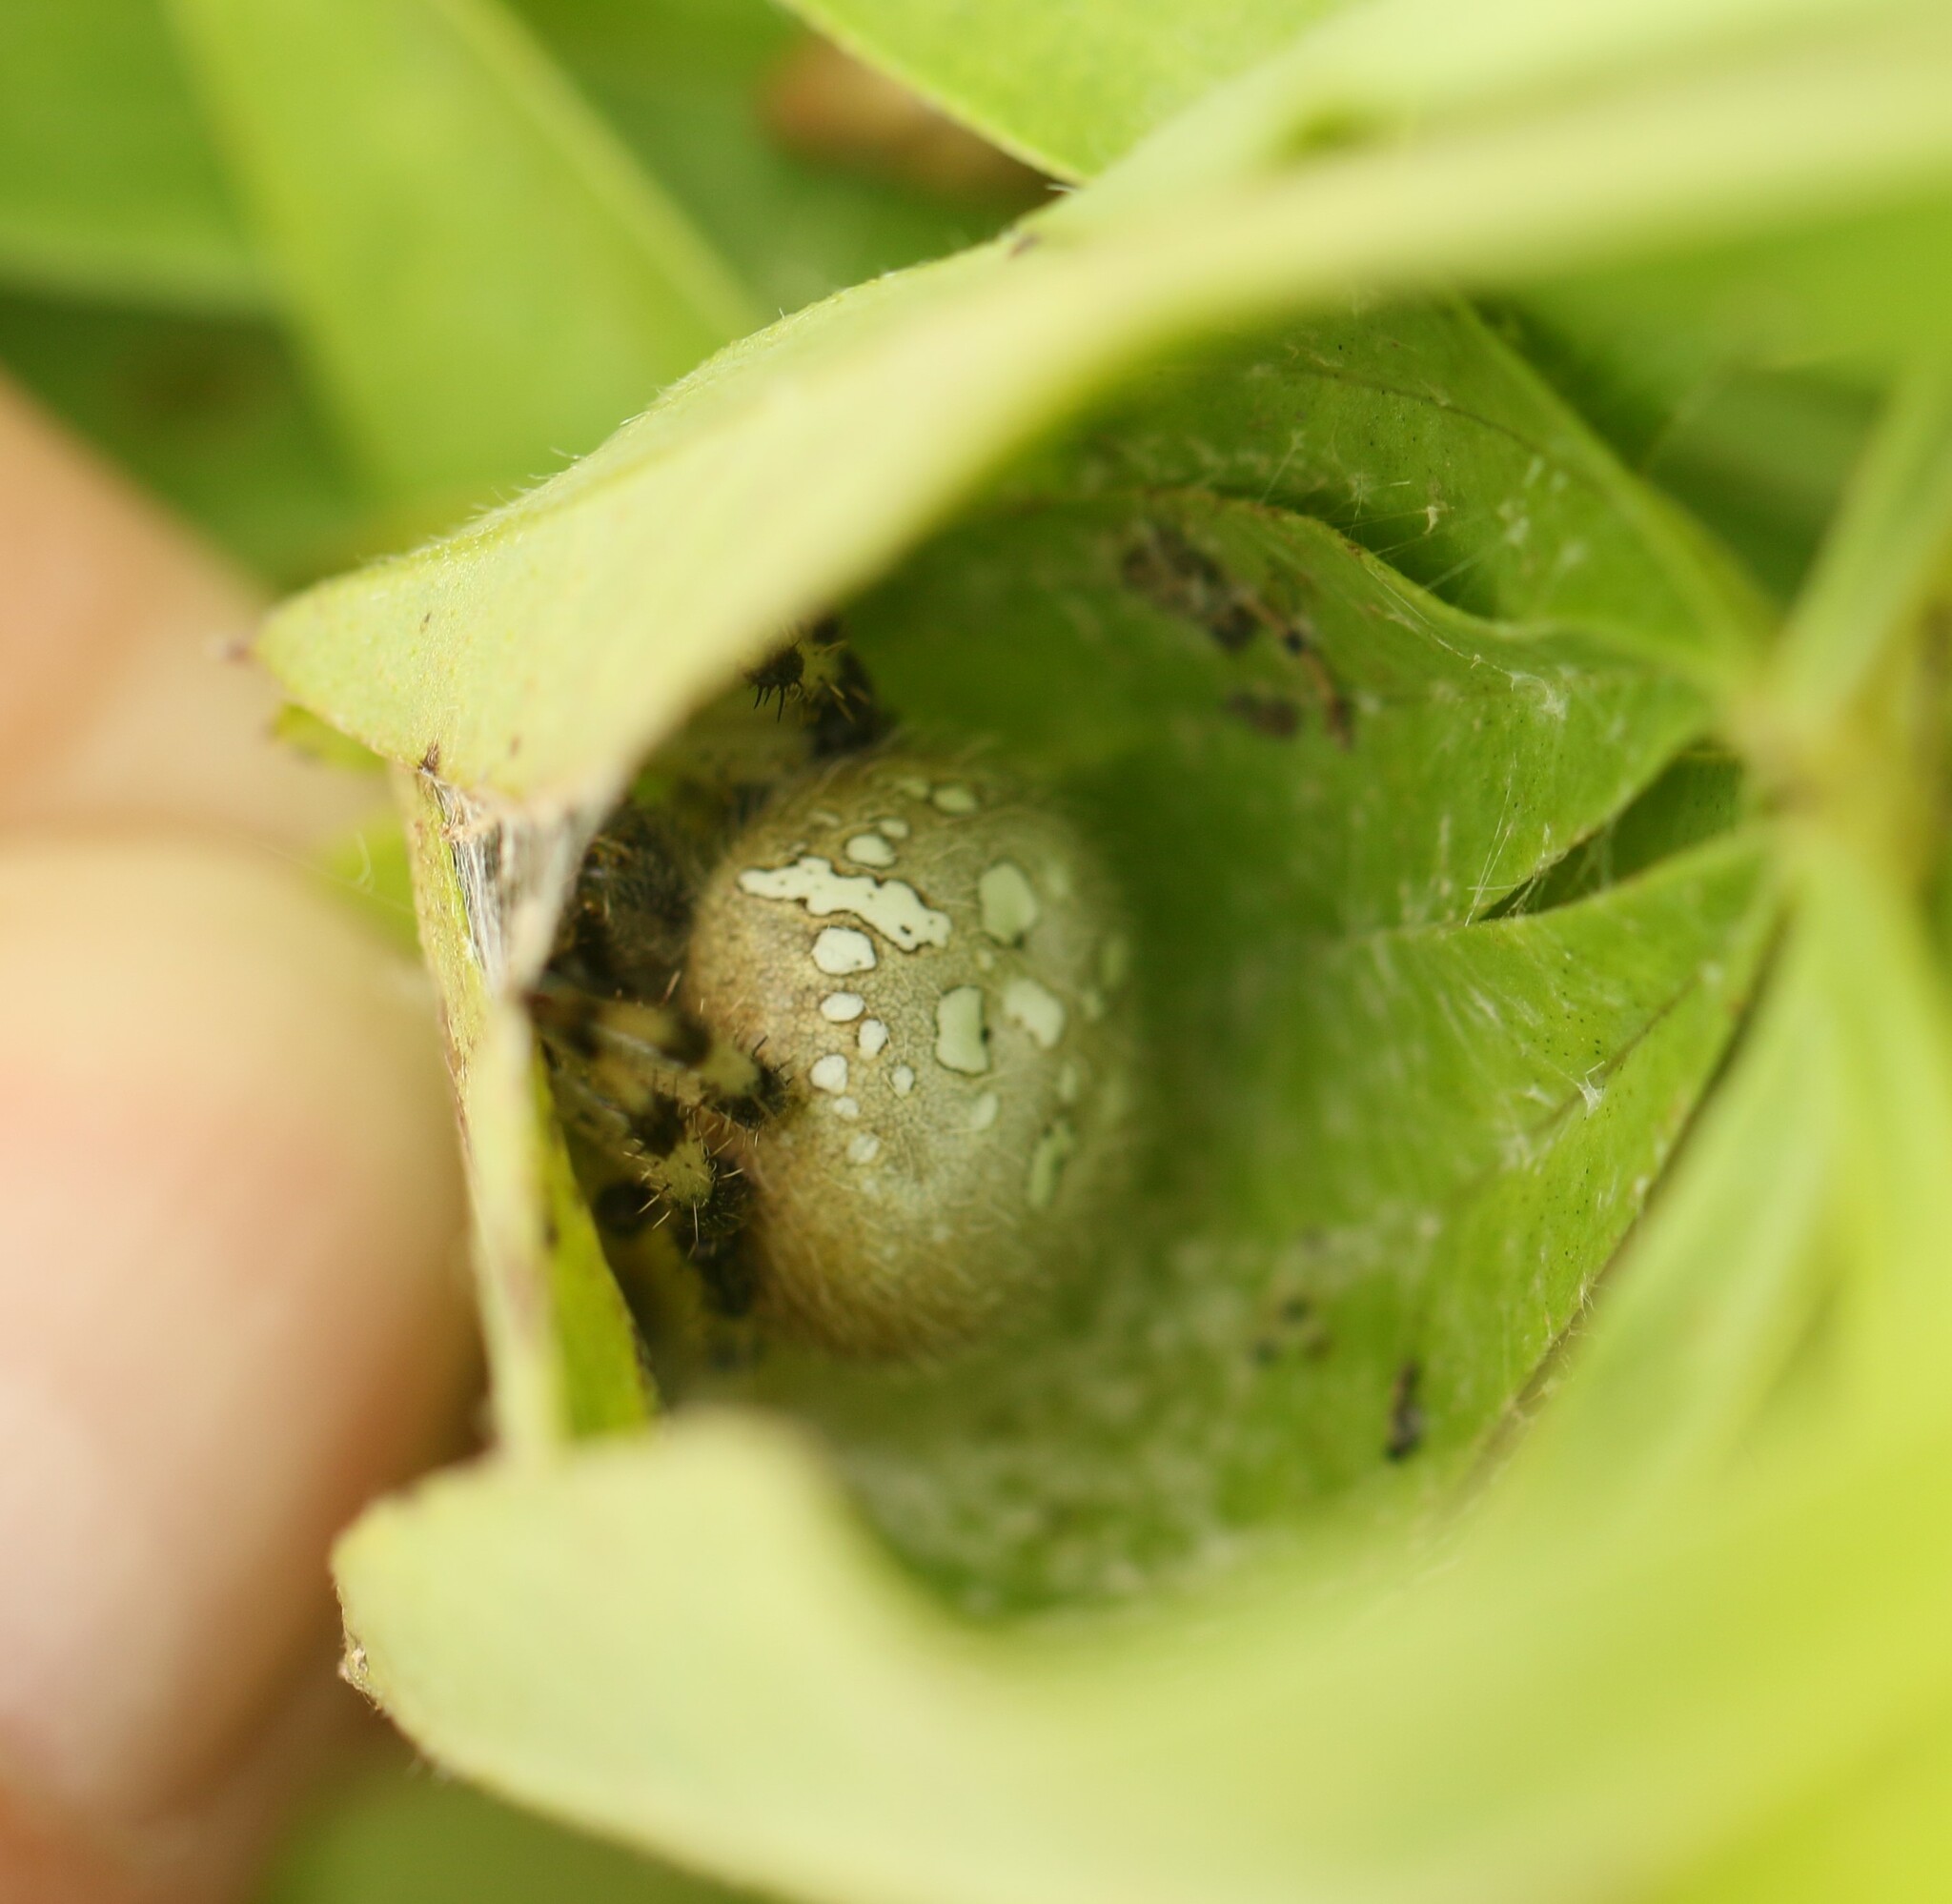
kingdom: Animalia
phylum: Arthropoda
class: Arachnida
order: Araneae
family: Araneidae
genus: Araneus
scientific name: Araneus trifolium
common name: Shamrock orbweaver
